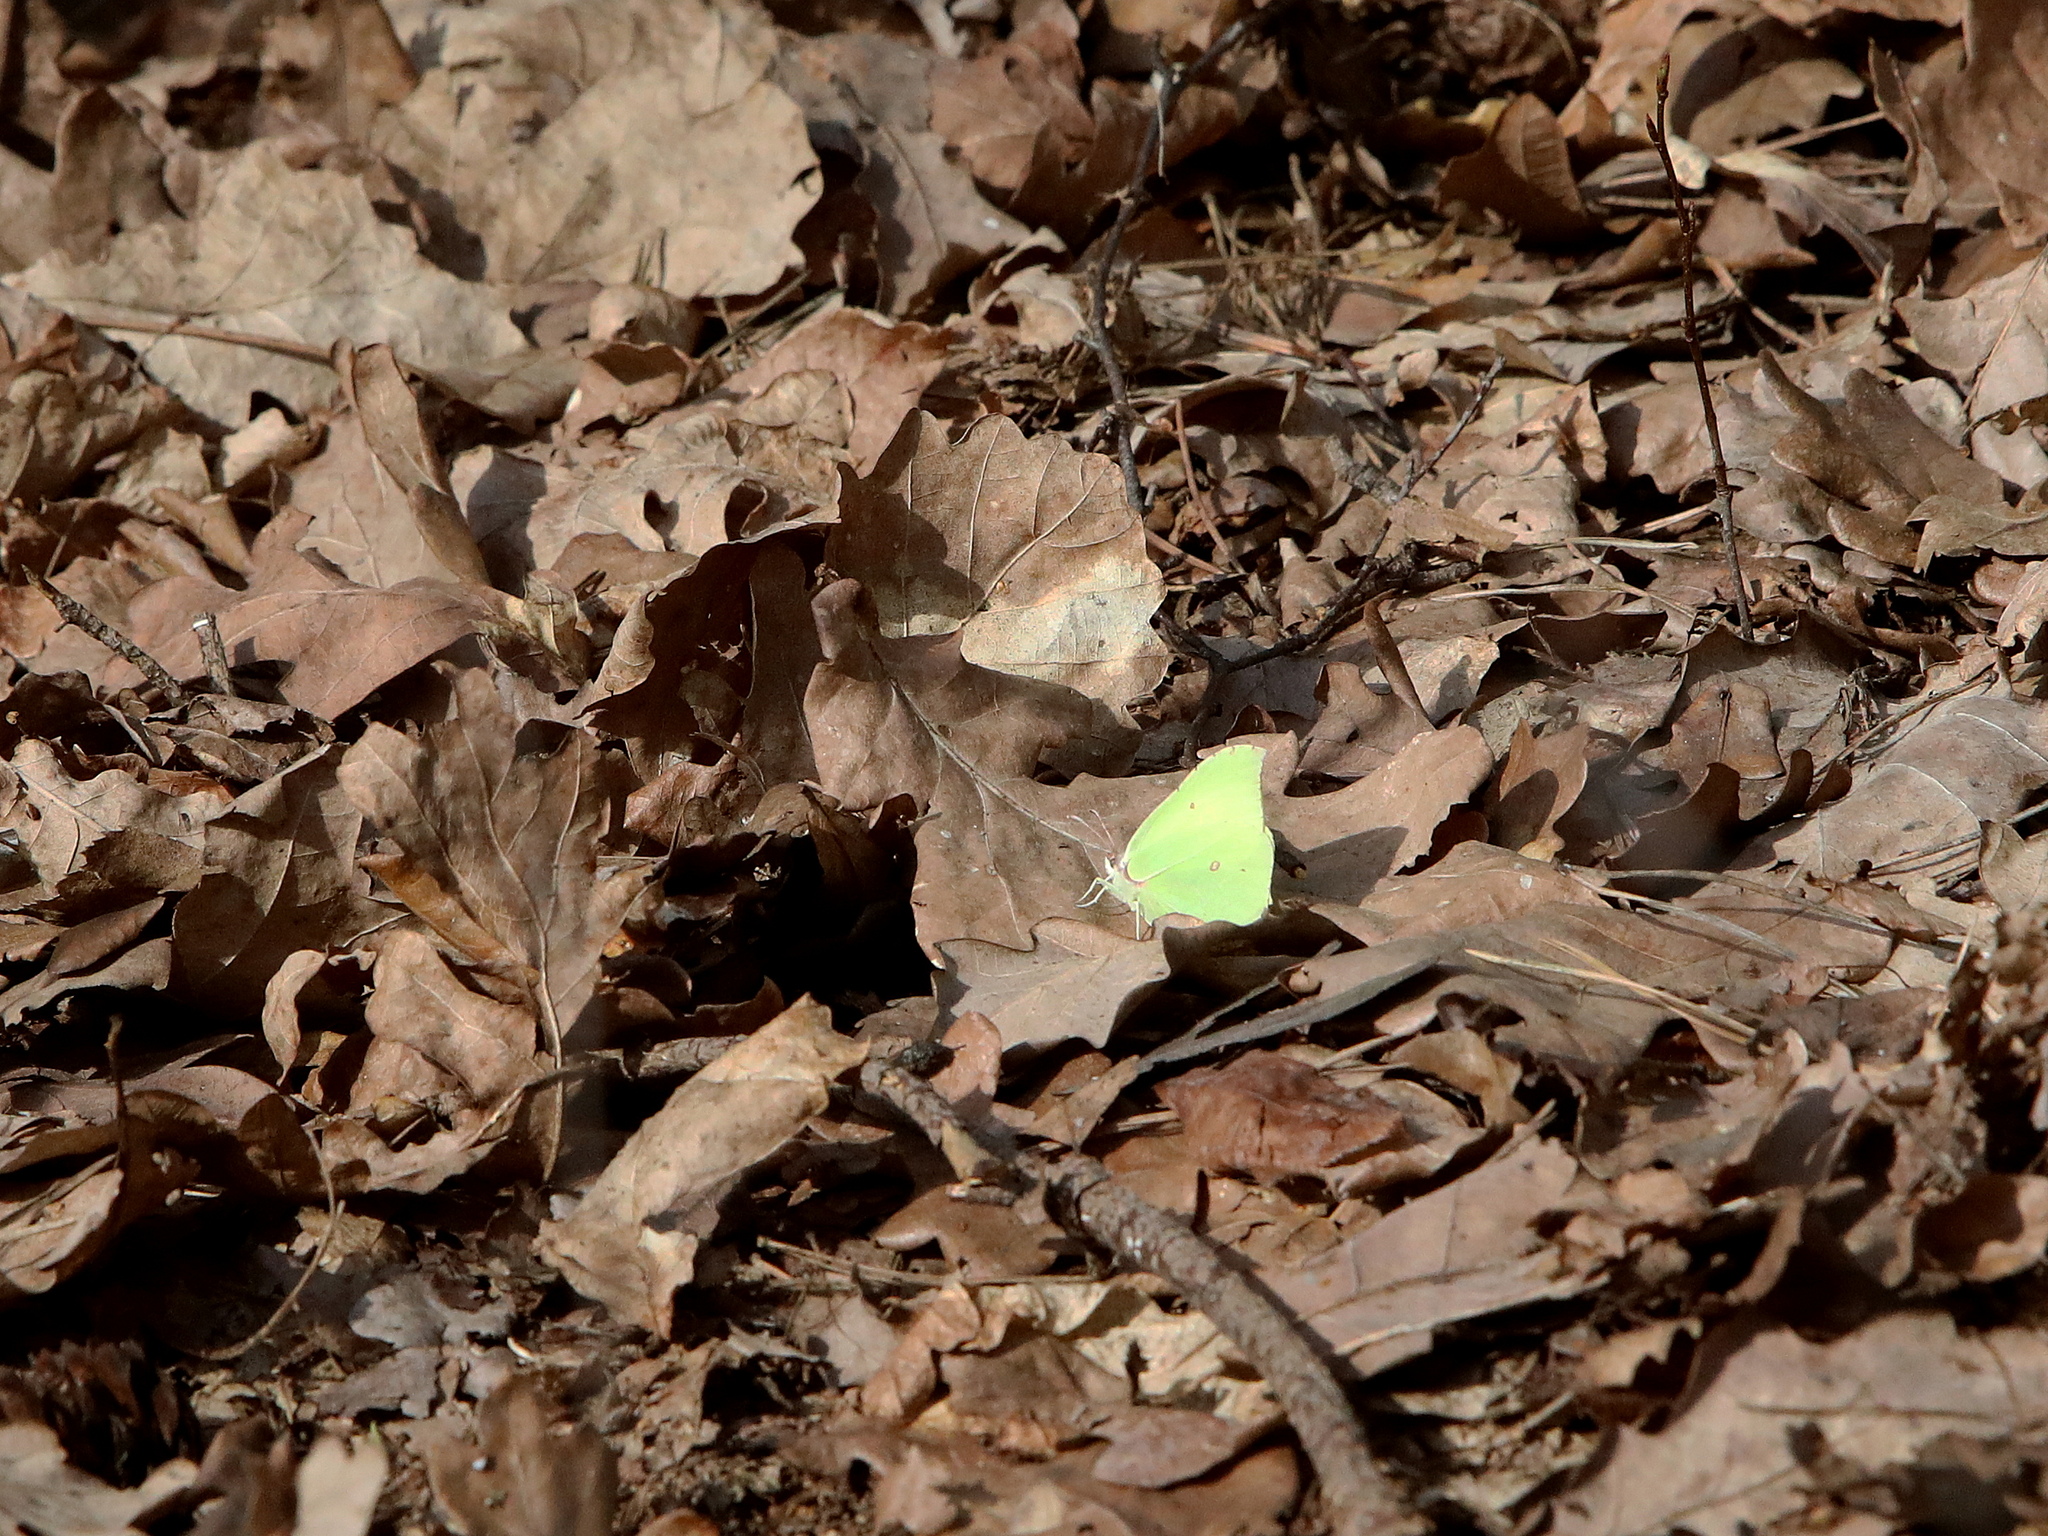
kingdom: Animalia
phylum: Arthropoda
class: Insecta
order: Lepidoptera
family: Pieridae
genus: Gonepteryx
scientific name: Gonepteryx rhamni
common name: Brimstone
